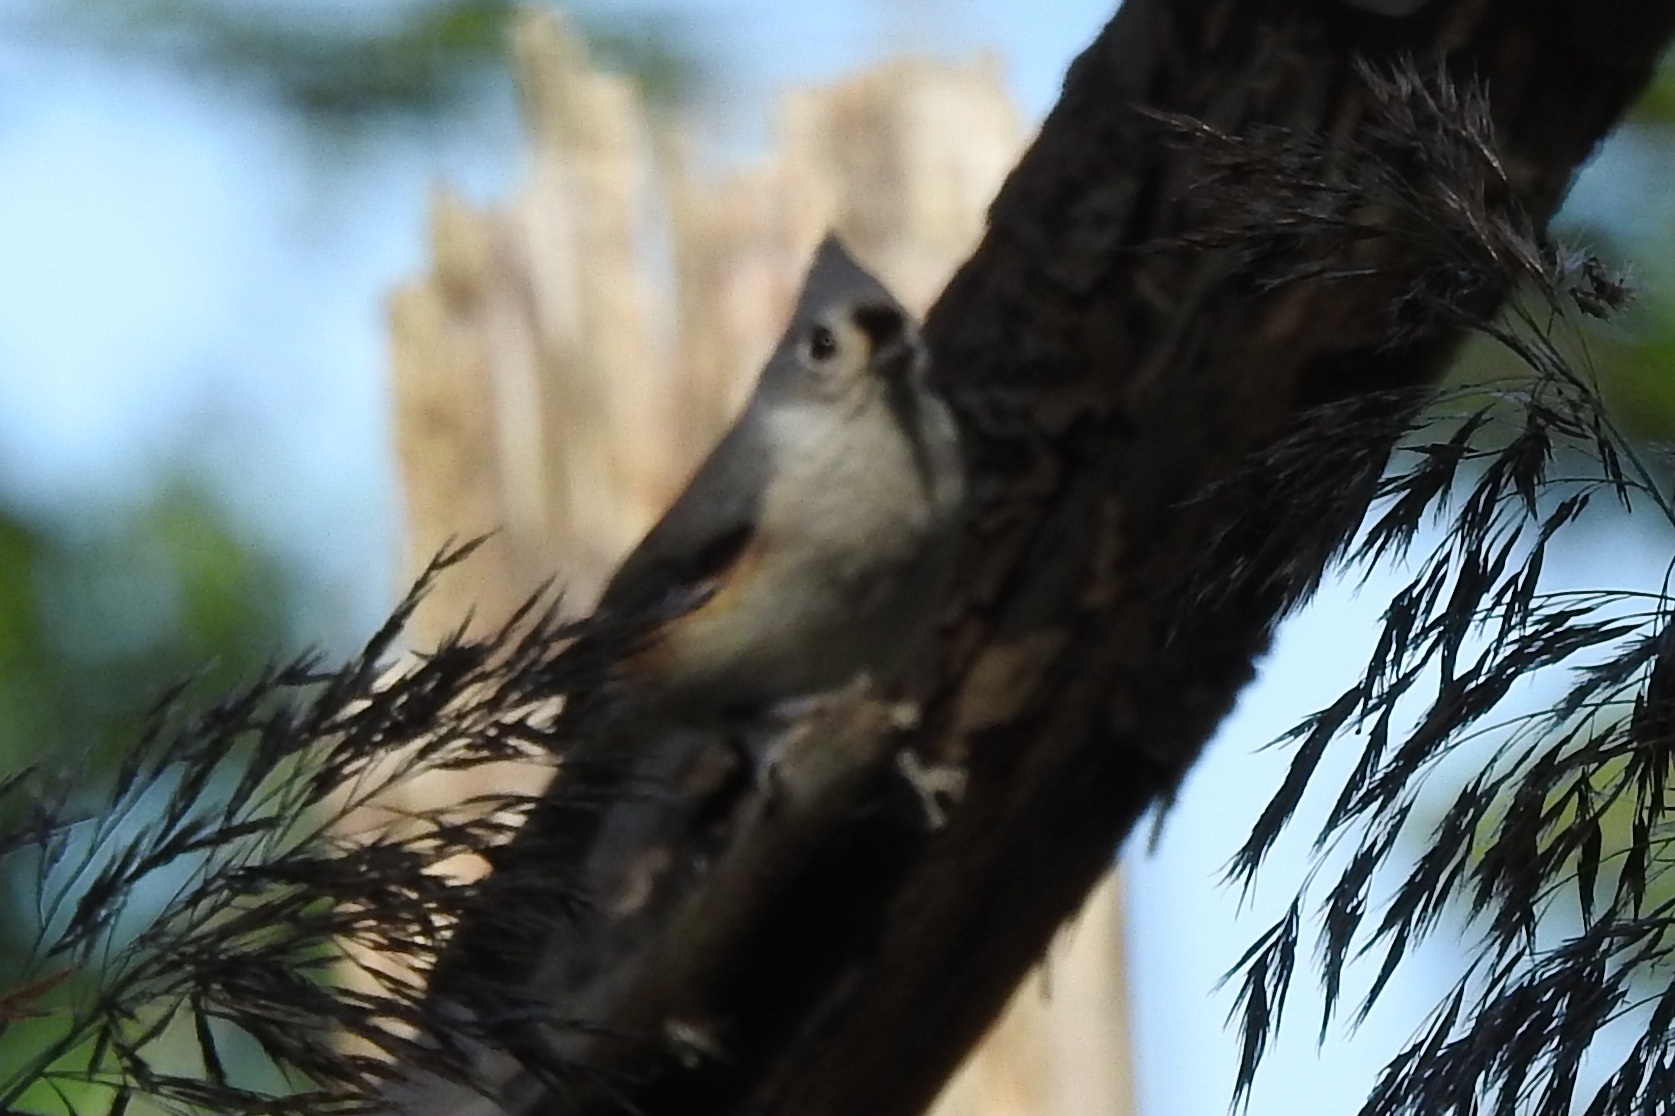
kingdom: Animalia
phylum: Chordata
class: Aves
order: Passeriformes
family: Paridae
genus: Baeolophus
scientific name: Baeolophus bicolor
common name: Tufted titmouse
